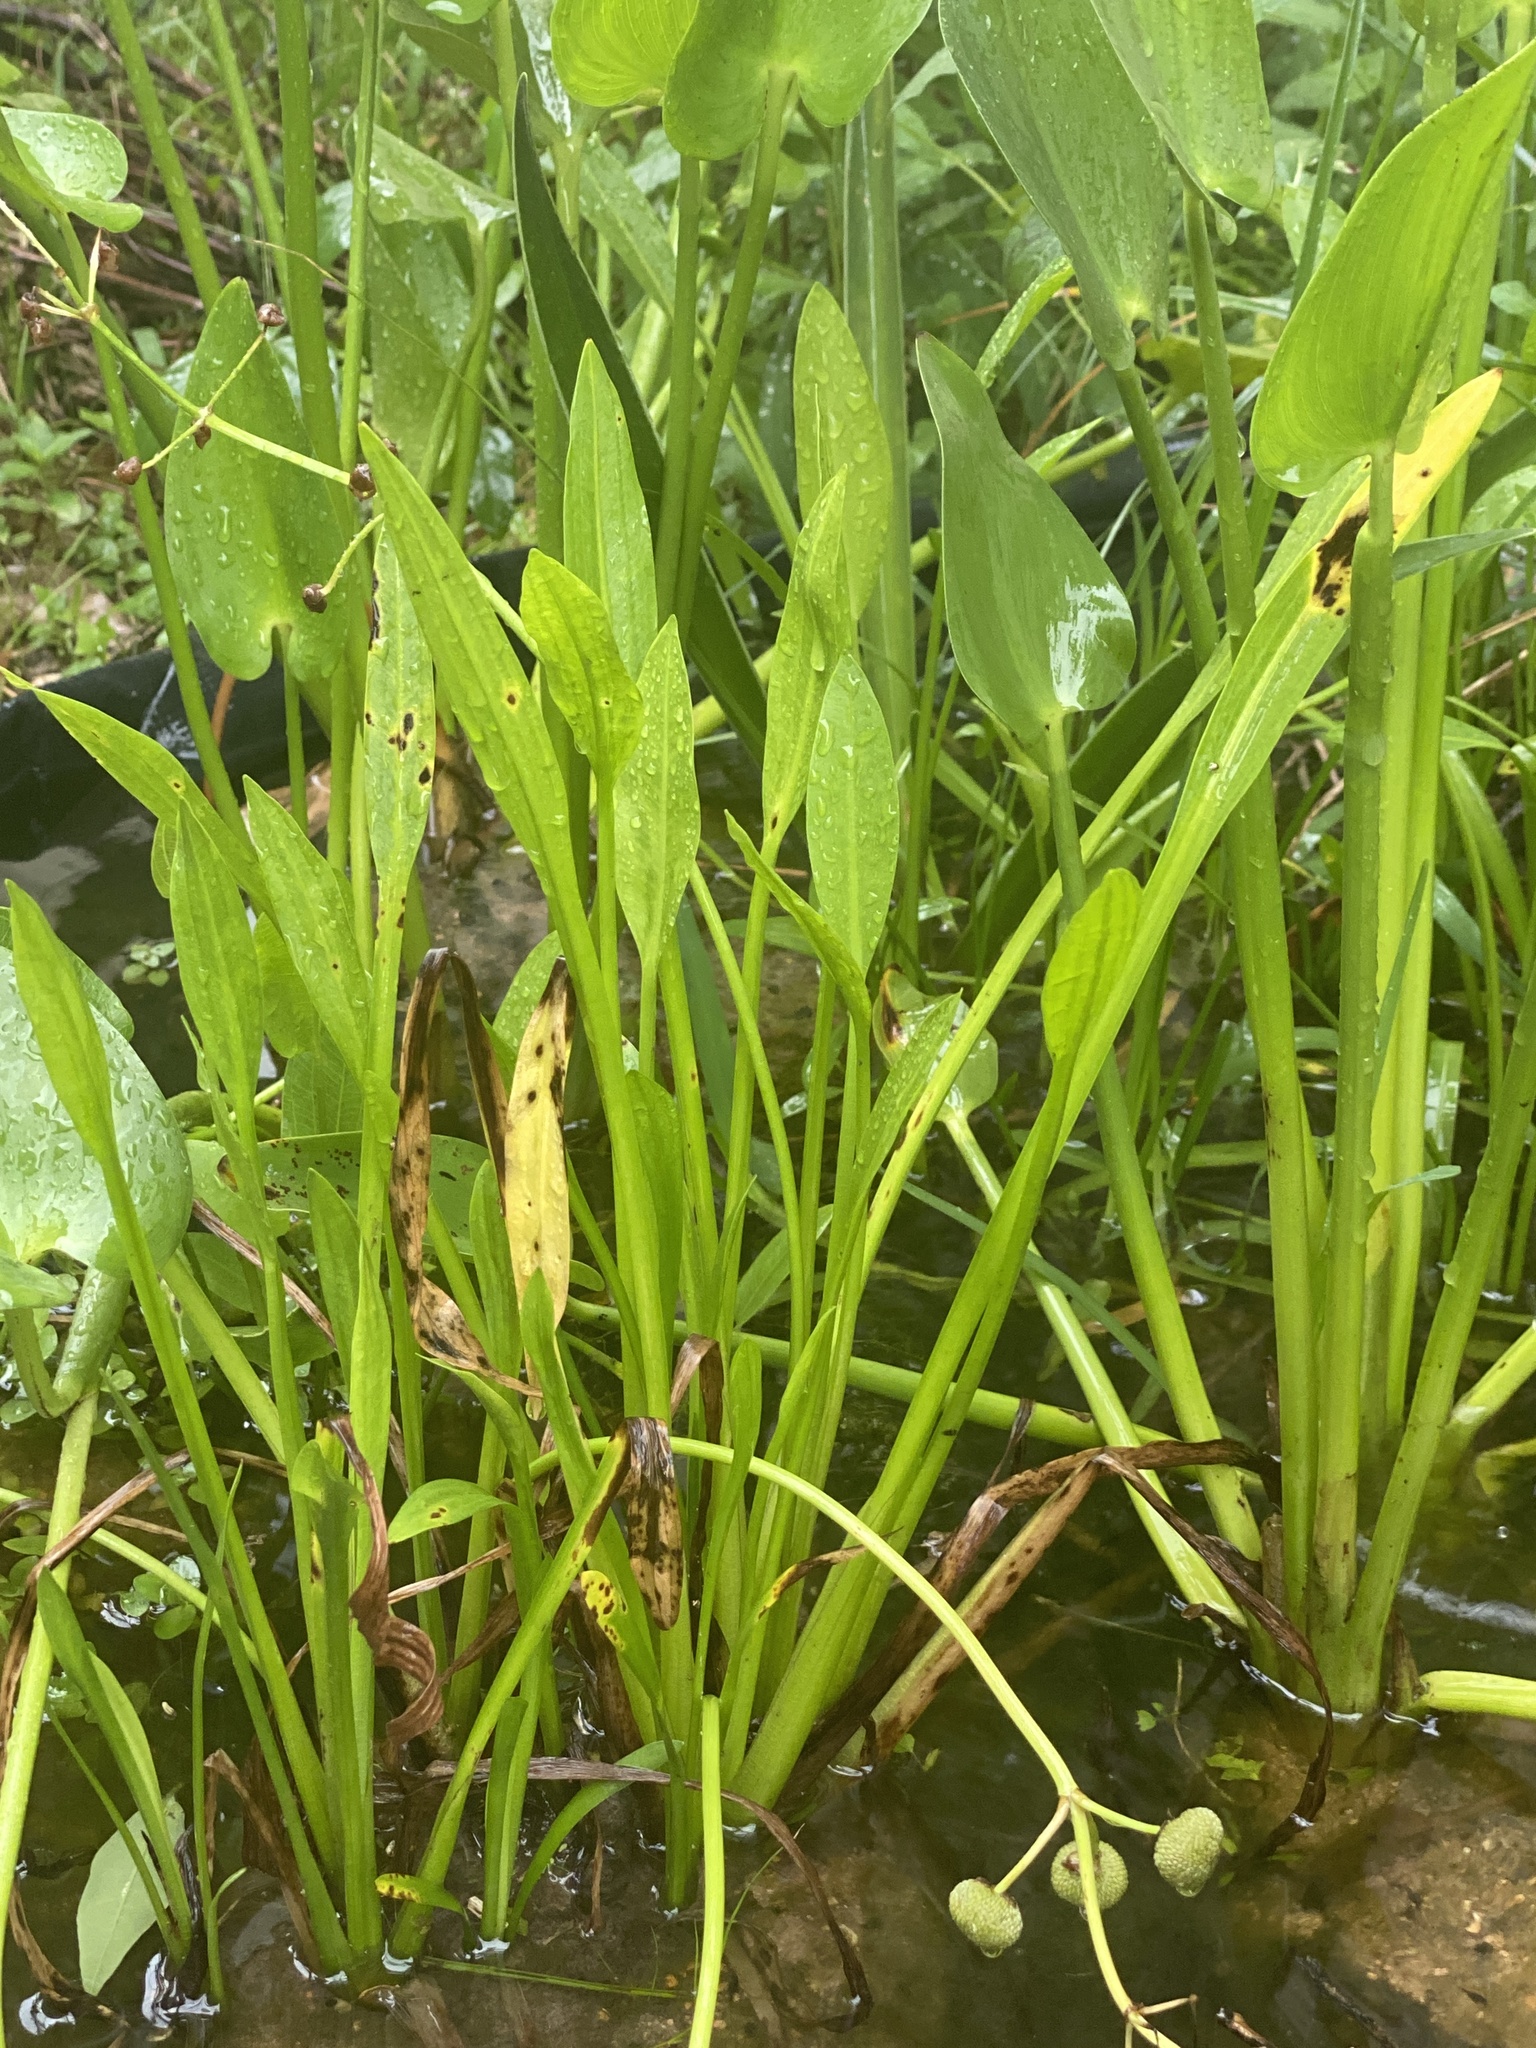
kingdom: Plantae
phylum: Tracheophyta
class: Liliopsida
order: Alismatales
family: Alismataceae
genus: Sagittaria
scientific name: Sagittaria platyphylla
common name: Broad-leaf arrowhead
